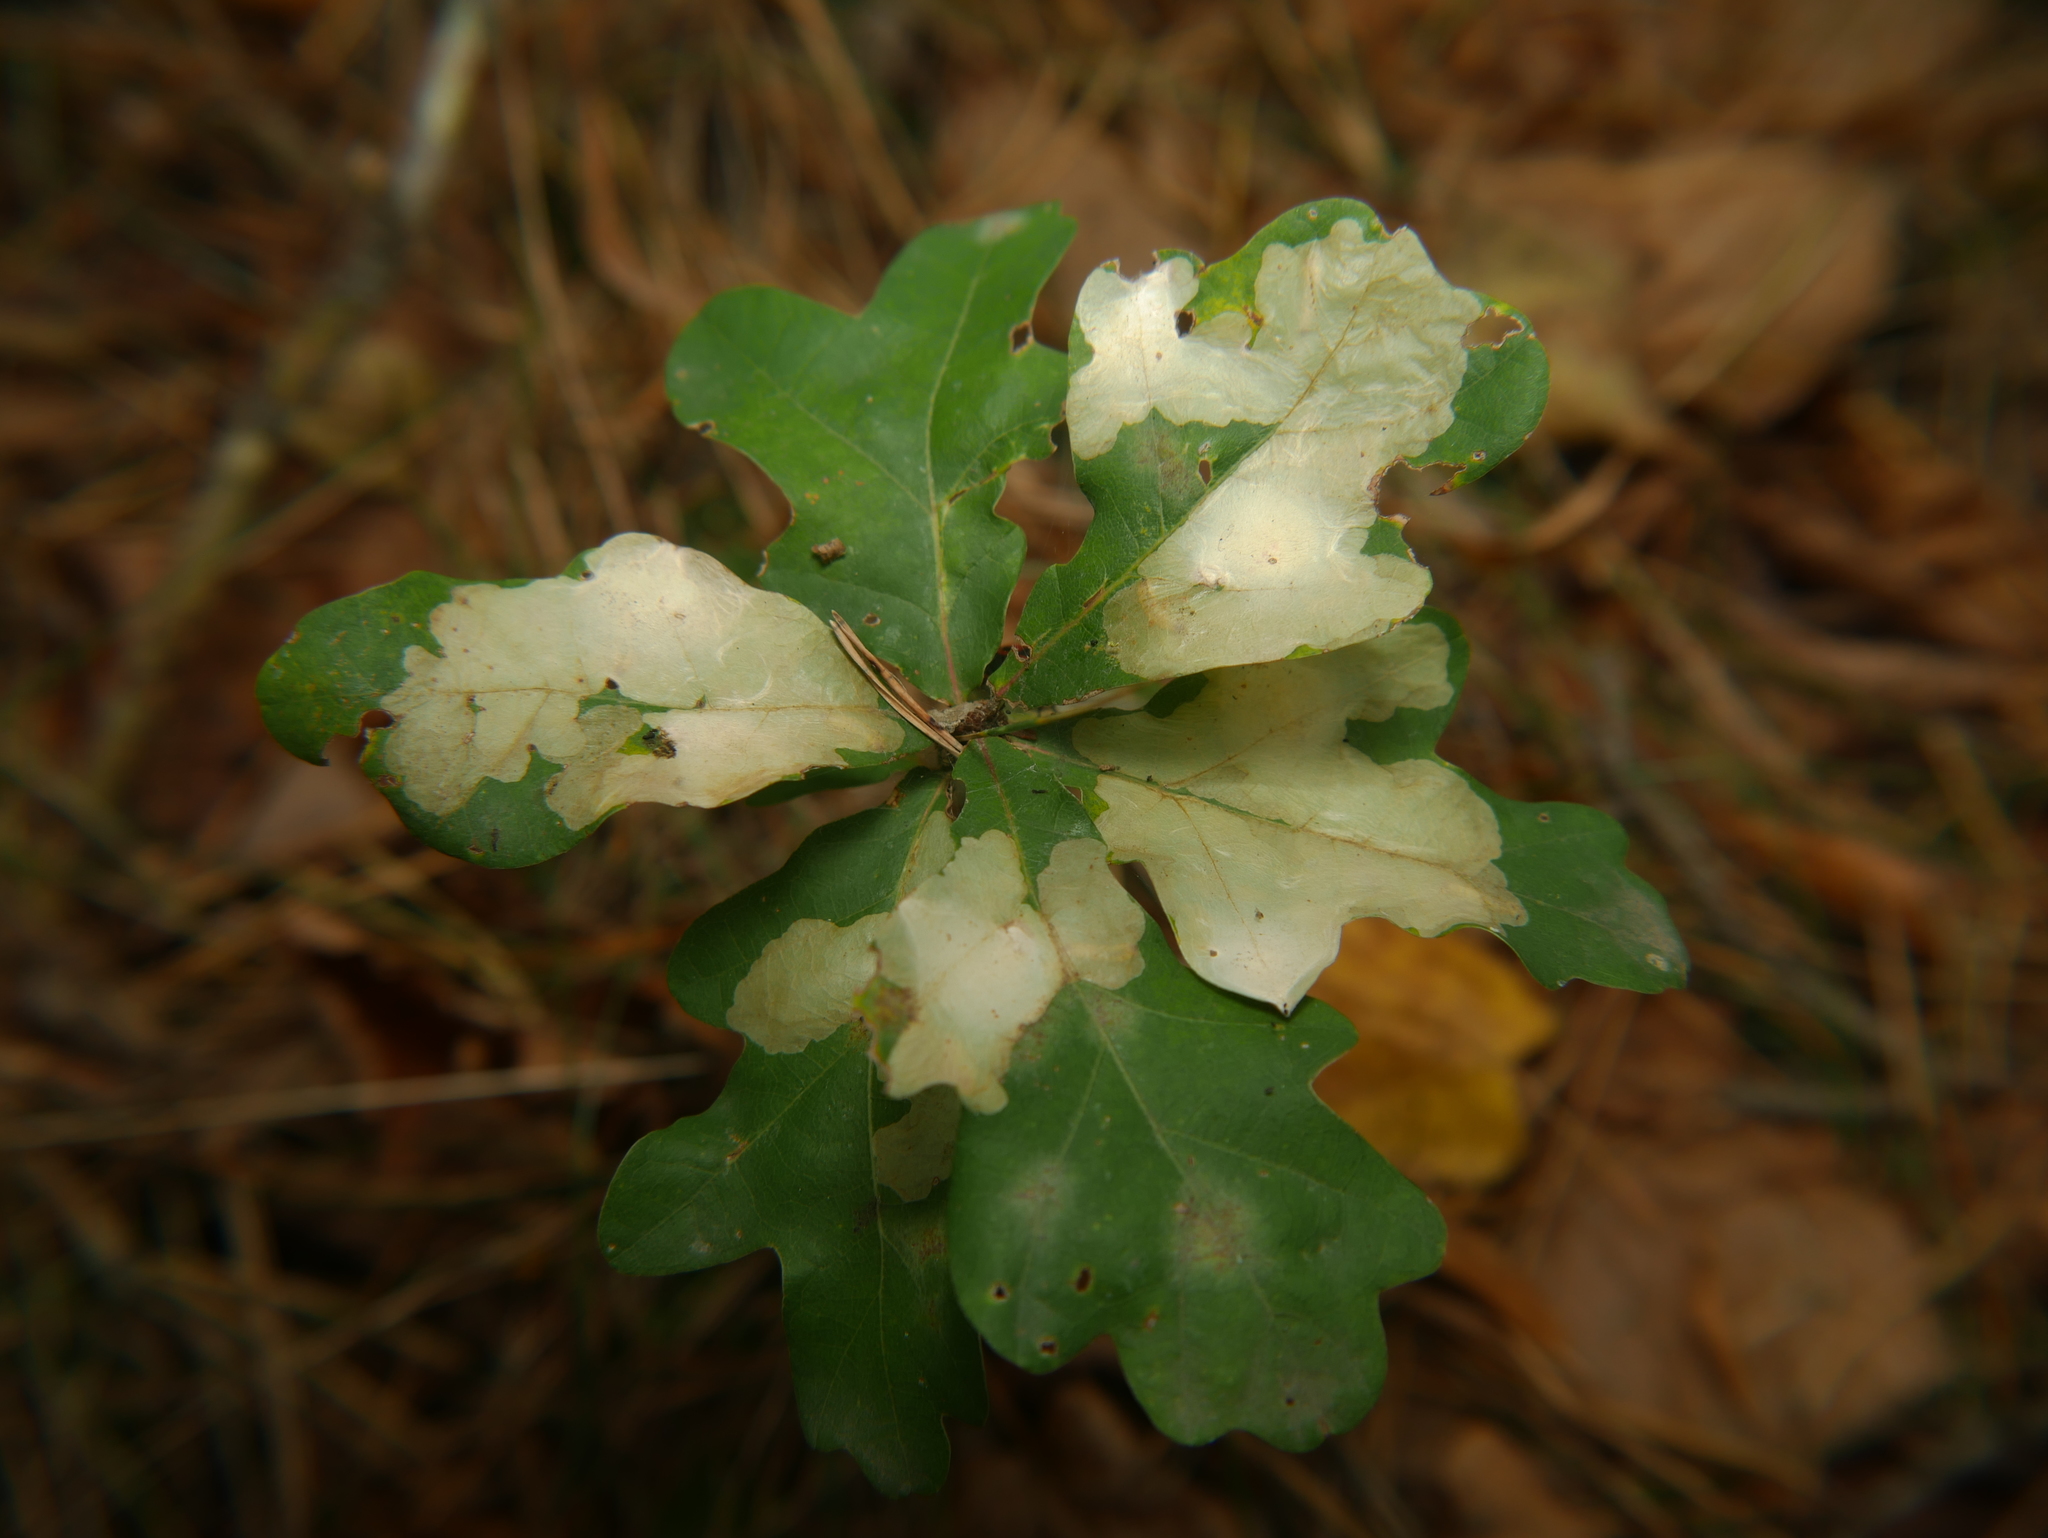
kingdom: Plantae
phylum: Tracheophyta
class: Magnoliopsida
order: Fagales
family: Fagaceae
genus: Quercus
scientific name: Quercus robur
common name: Pedunculate oak
